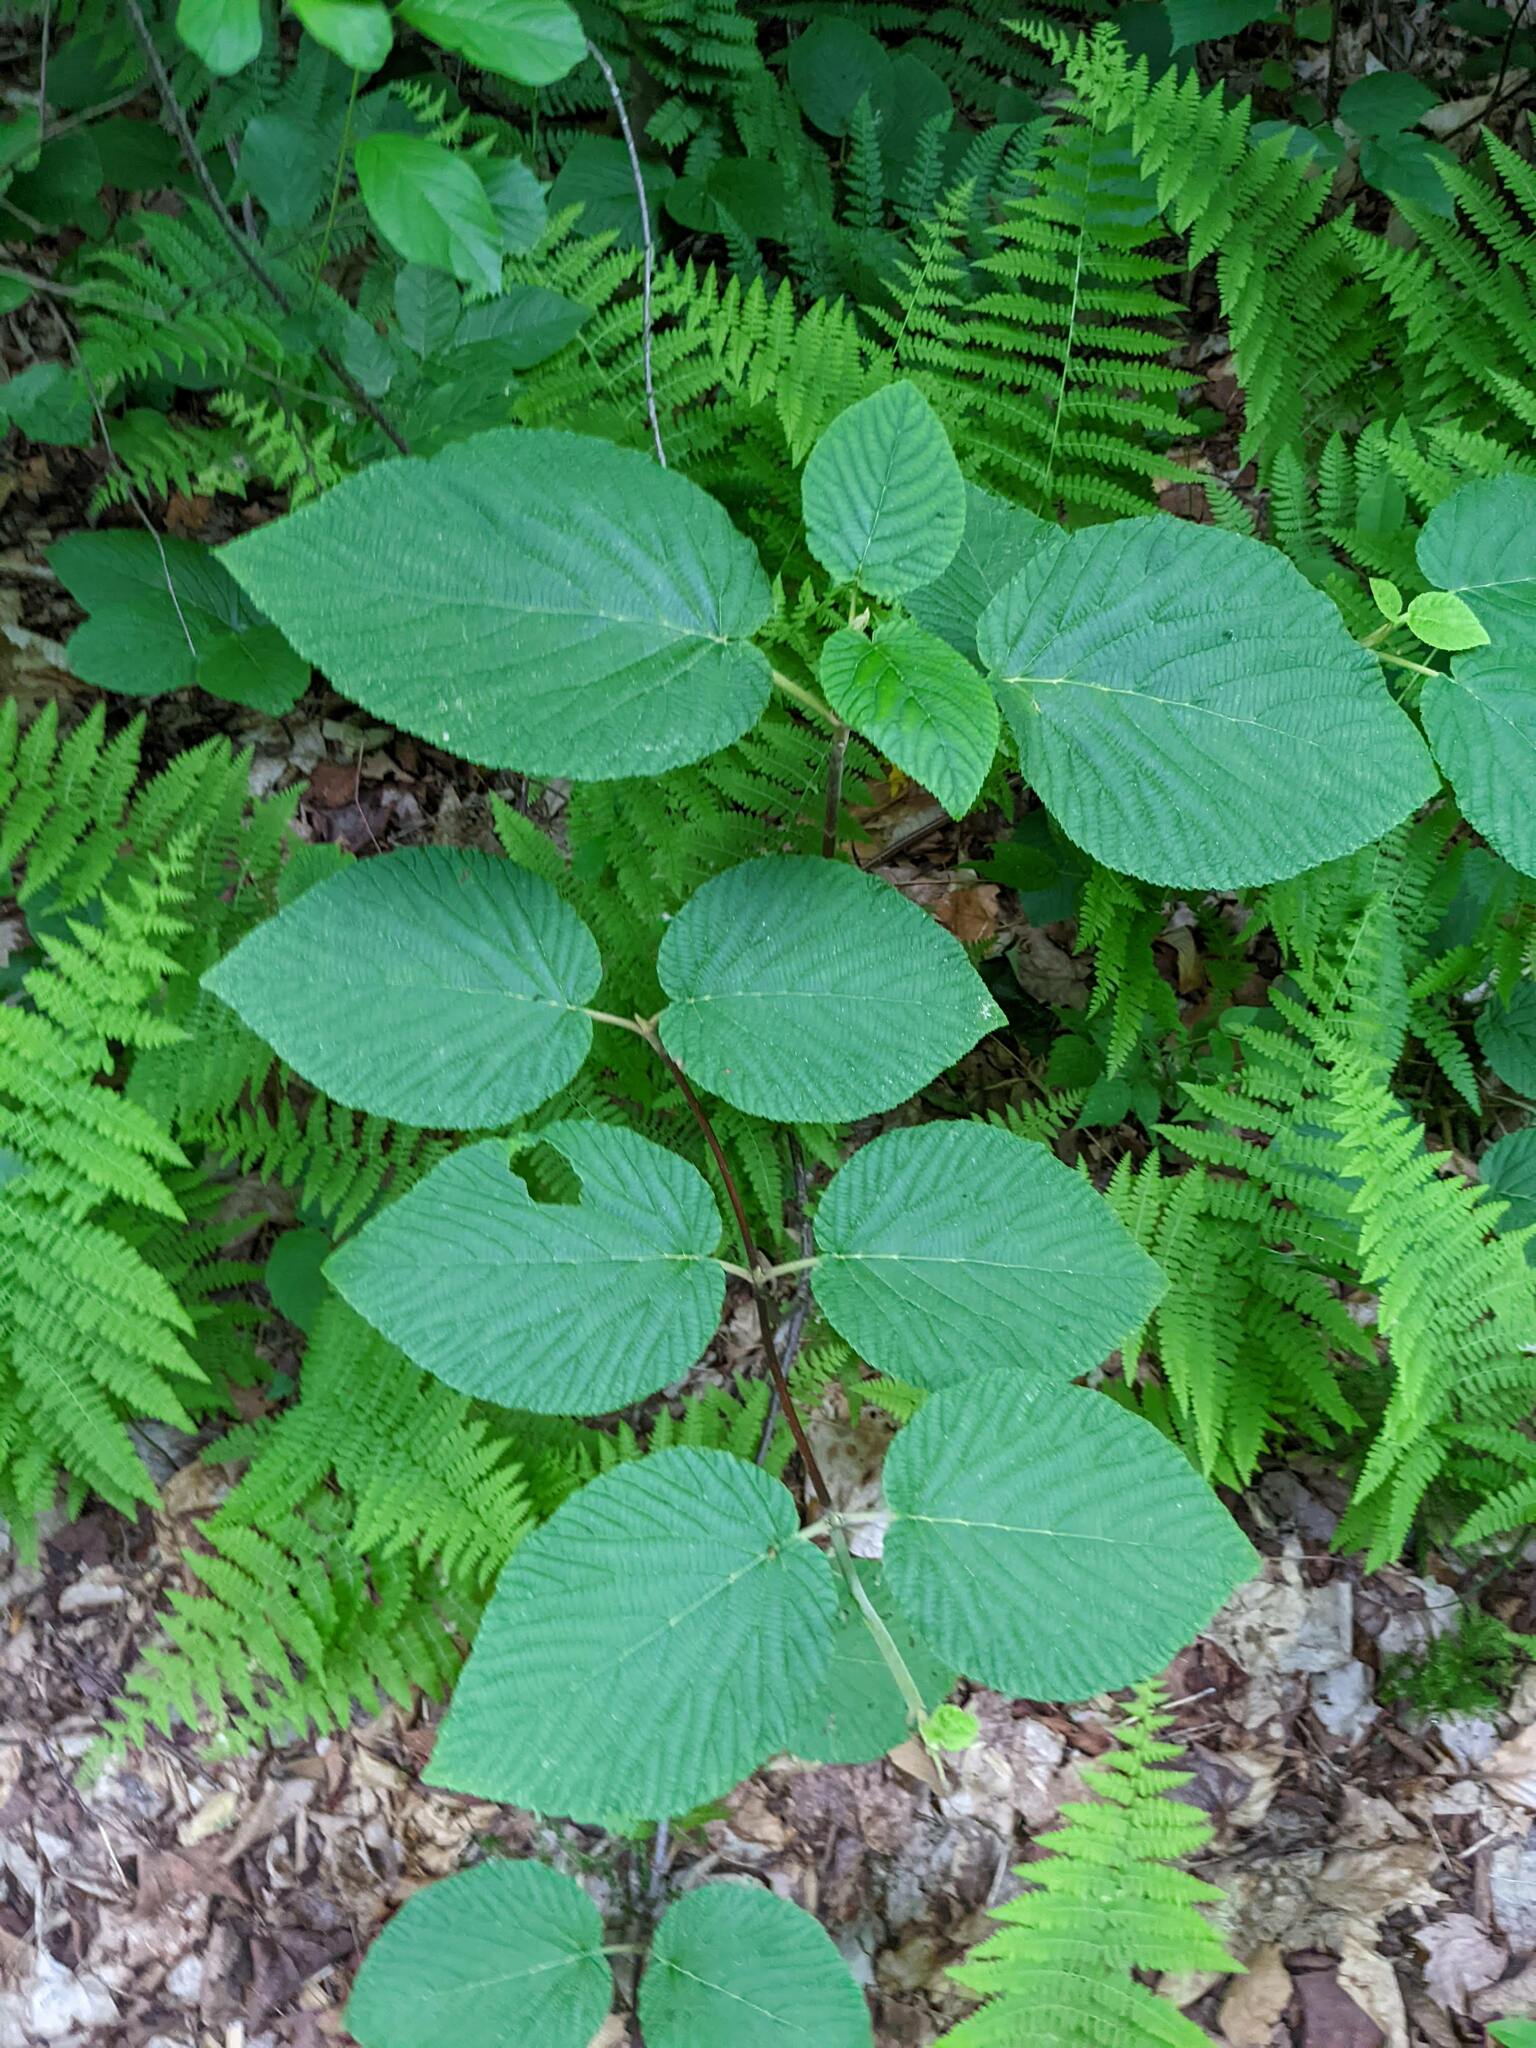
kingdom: Plantae
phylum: Tracheophyta
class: Magnoliopsida
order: Dipsacales
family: Viburnaceae
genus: Viburnum
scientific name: Viburnum lantanoides
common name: Hobblebush
